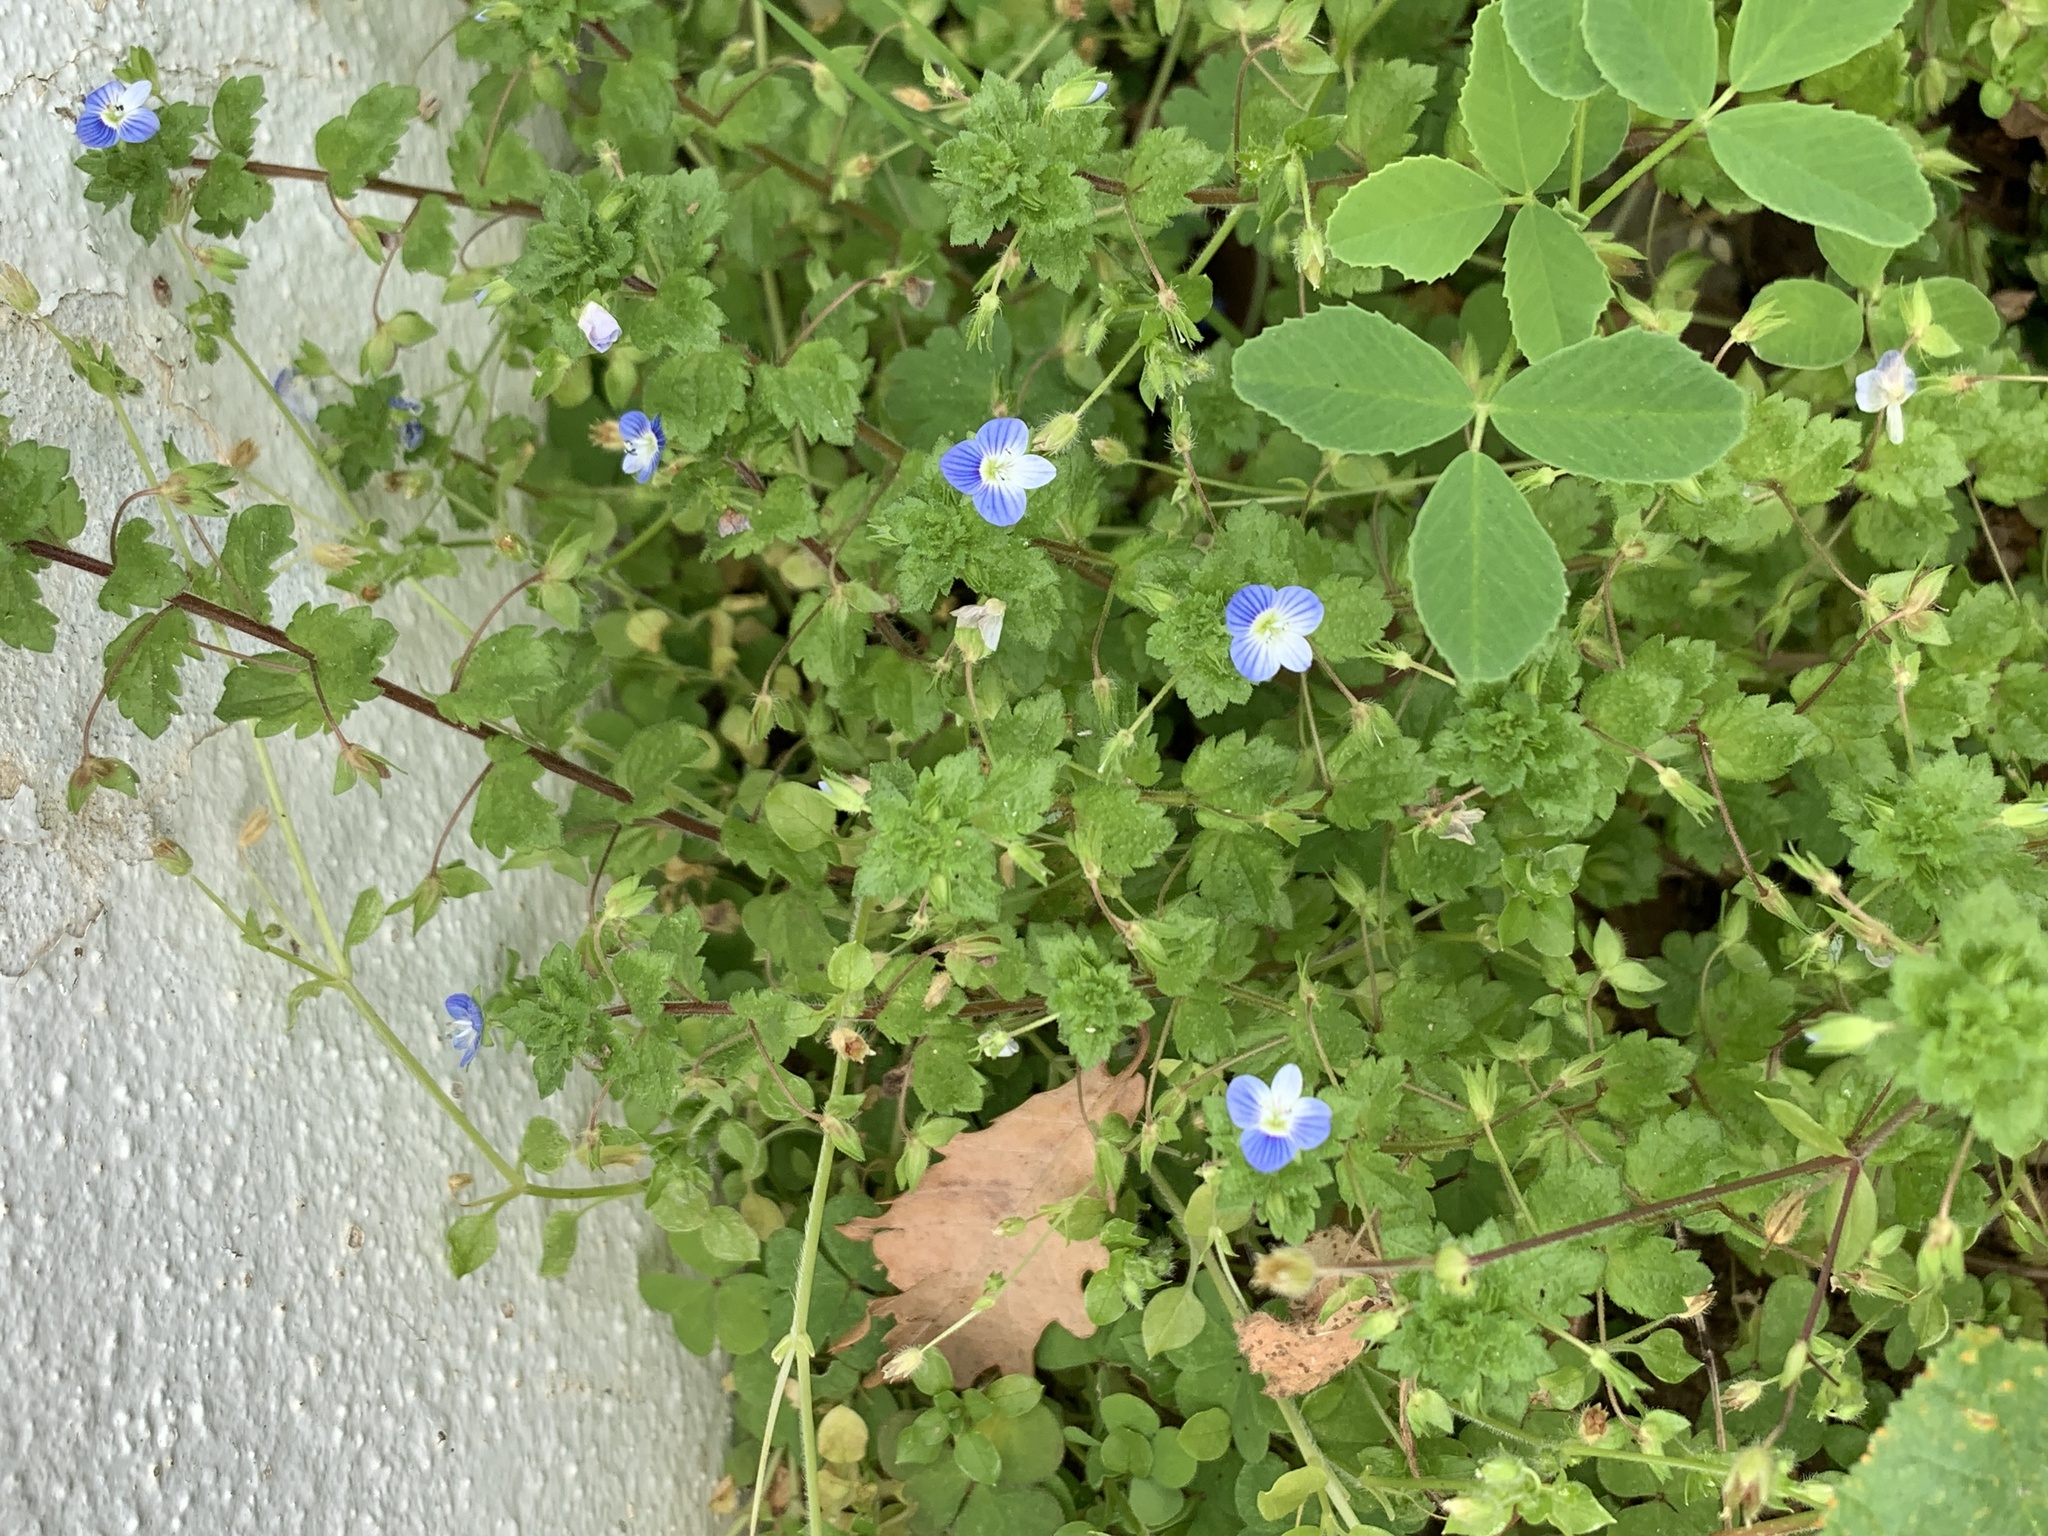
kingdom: Plantae
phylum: Tracheophyta
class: Magnoliopsida
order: Lamiales
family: Plantaginaceae
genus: Veronica
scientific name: Veronica persica
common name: Common field-speedwell
